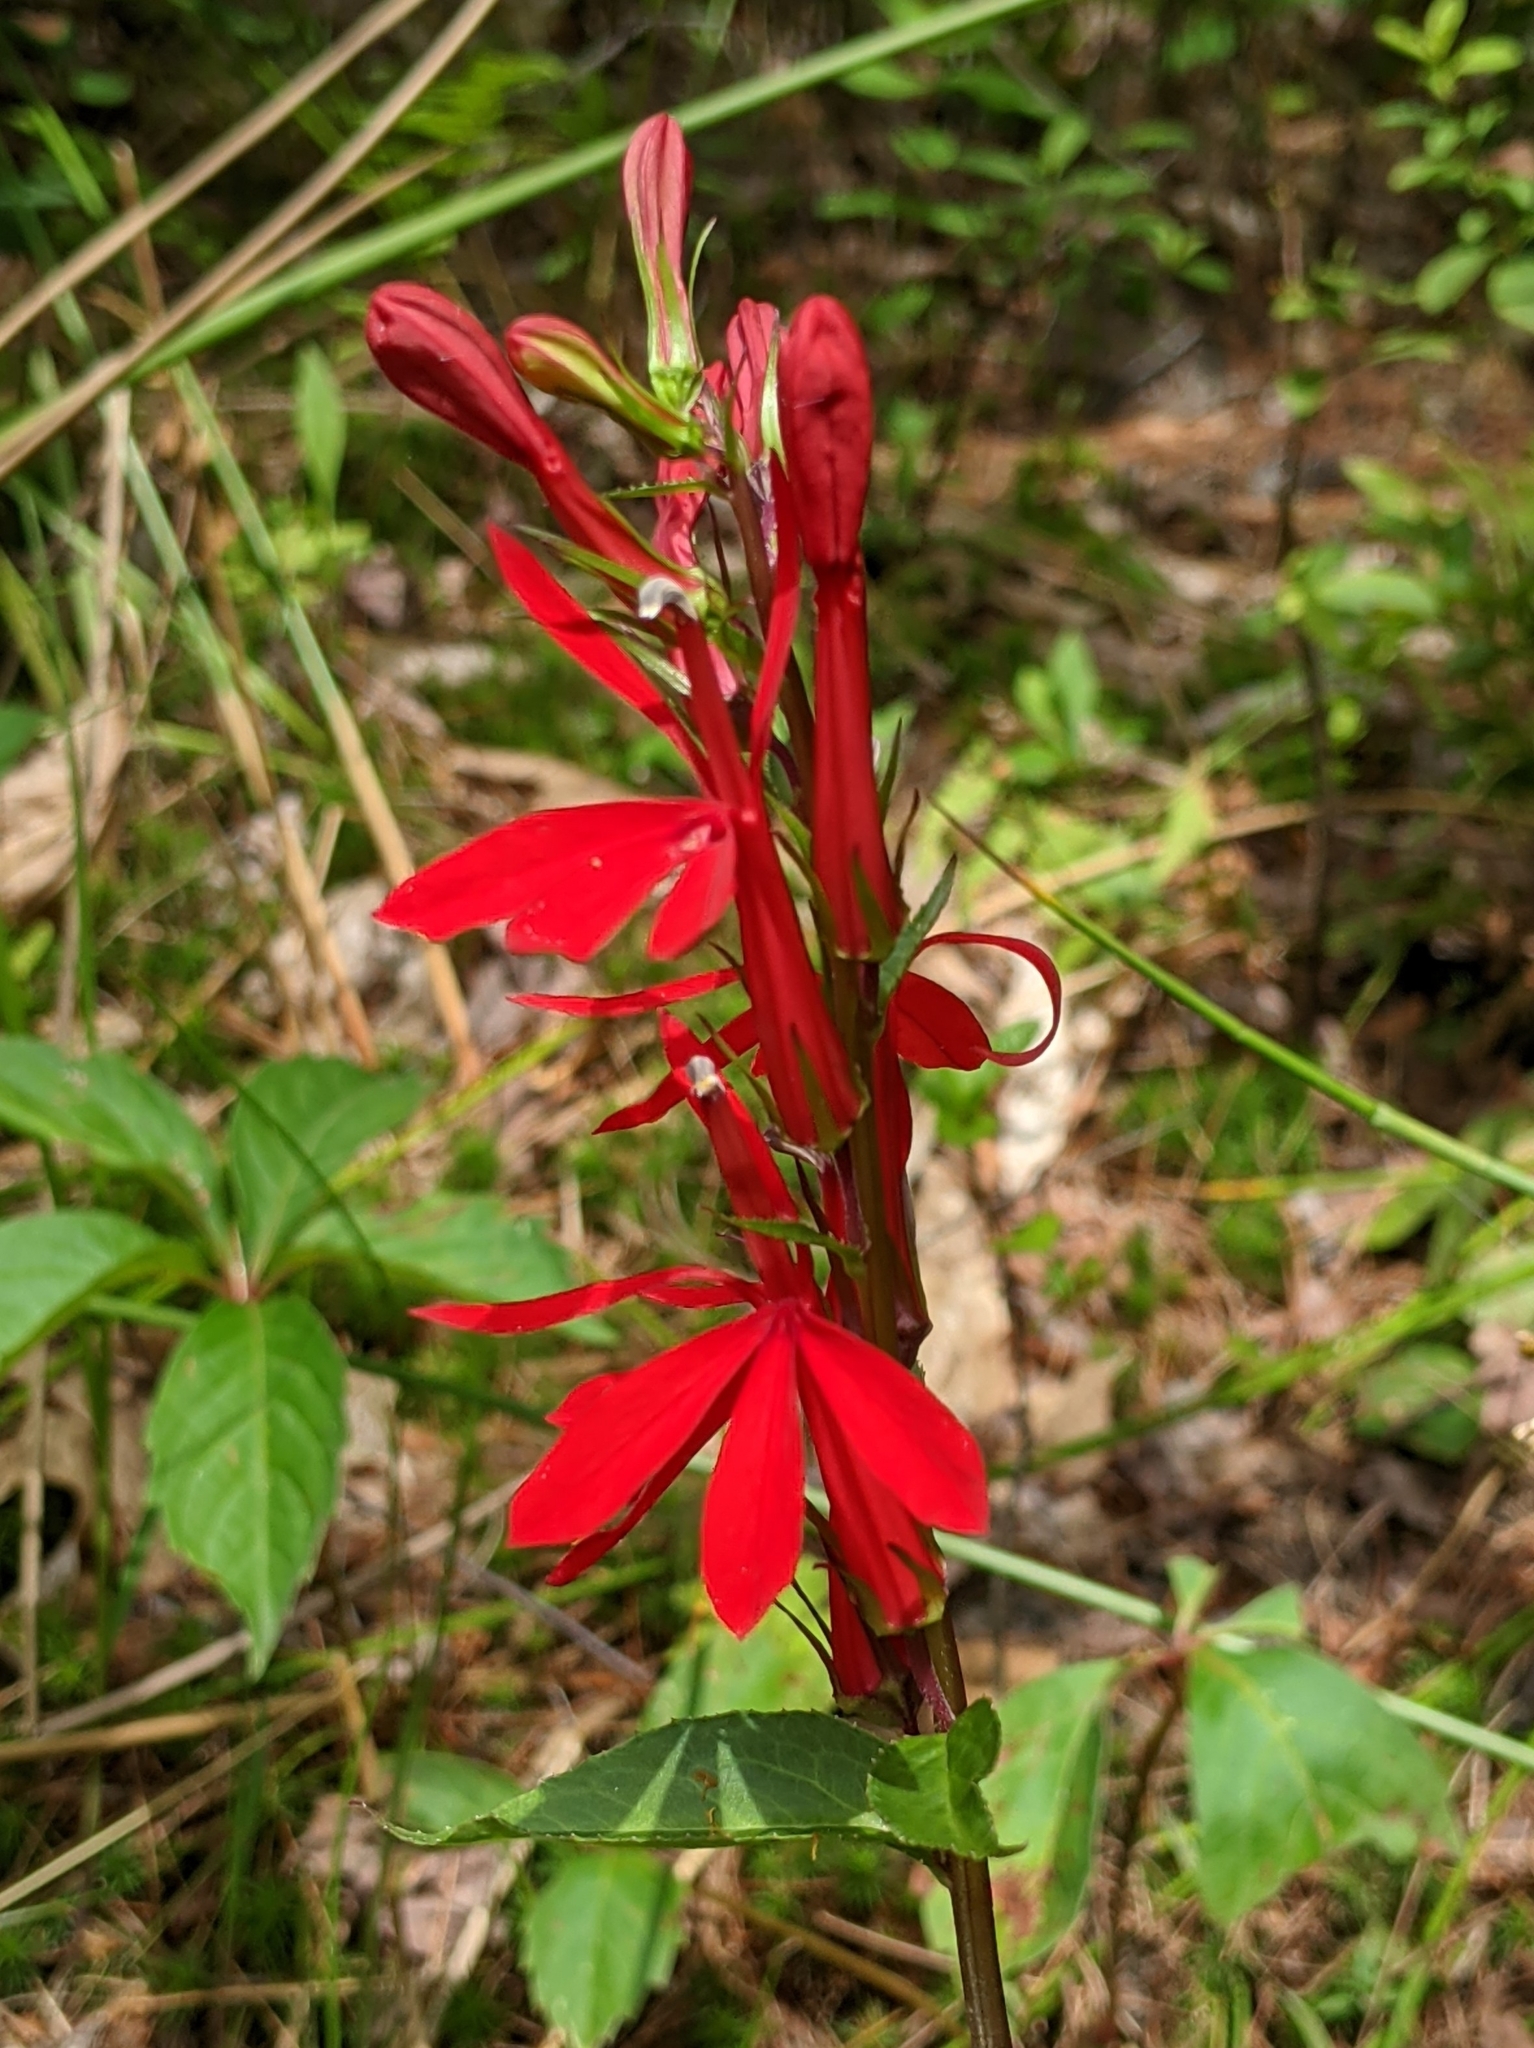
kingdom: Plantae
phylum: Tracheophyta
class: Magnoliopsida
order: Asterales
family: Campanulaceae
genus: Lobelia
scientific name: Lobelia cardinalis
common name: Cardinal flower
